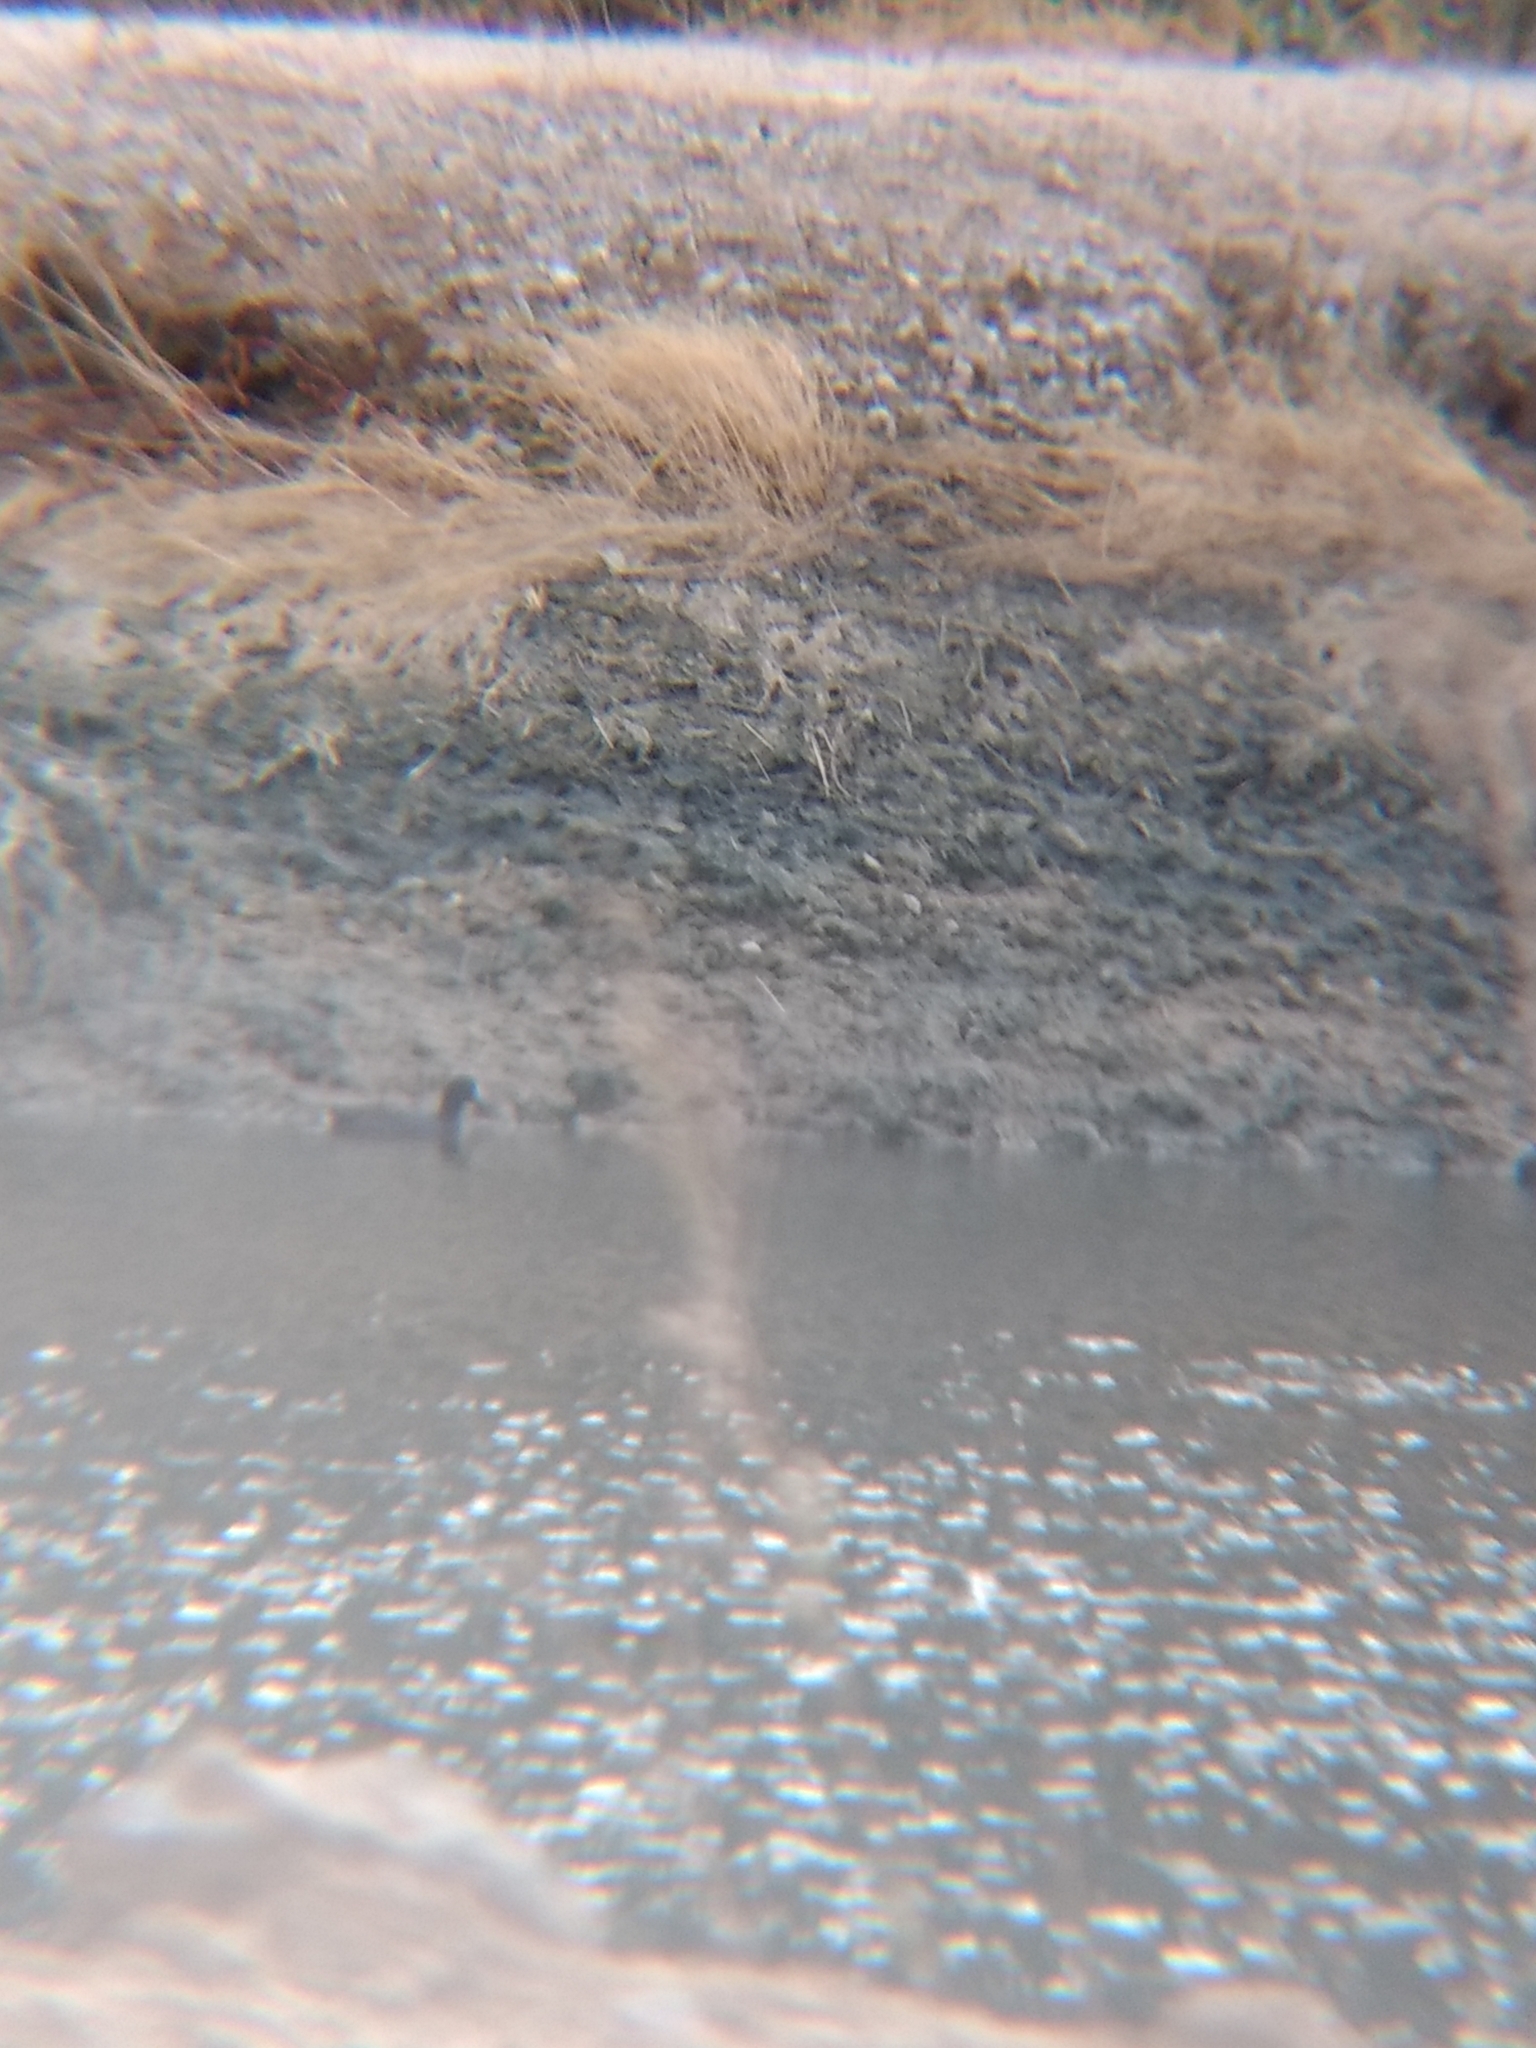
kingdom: Animalia
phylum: Chordata
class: Aves
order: Gruiformes
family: Rallidae
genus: Fulica
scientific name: Fulica americana
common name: American coot
